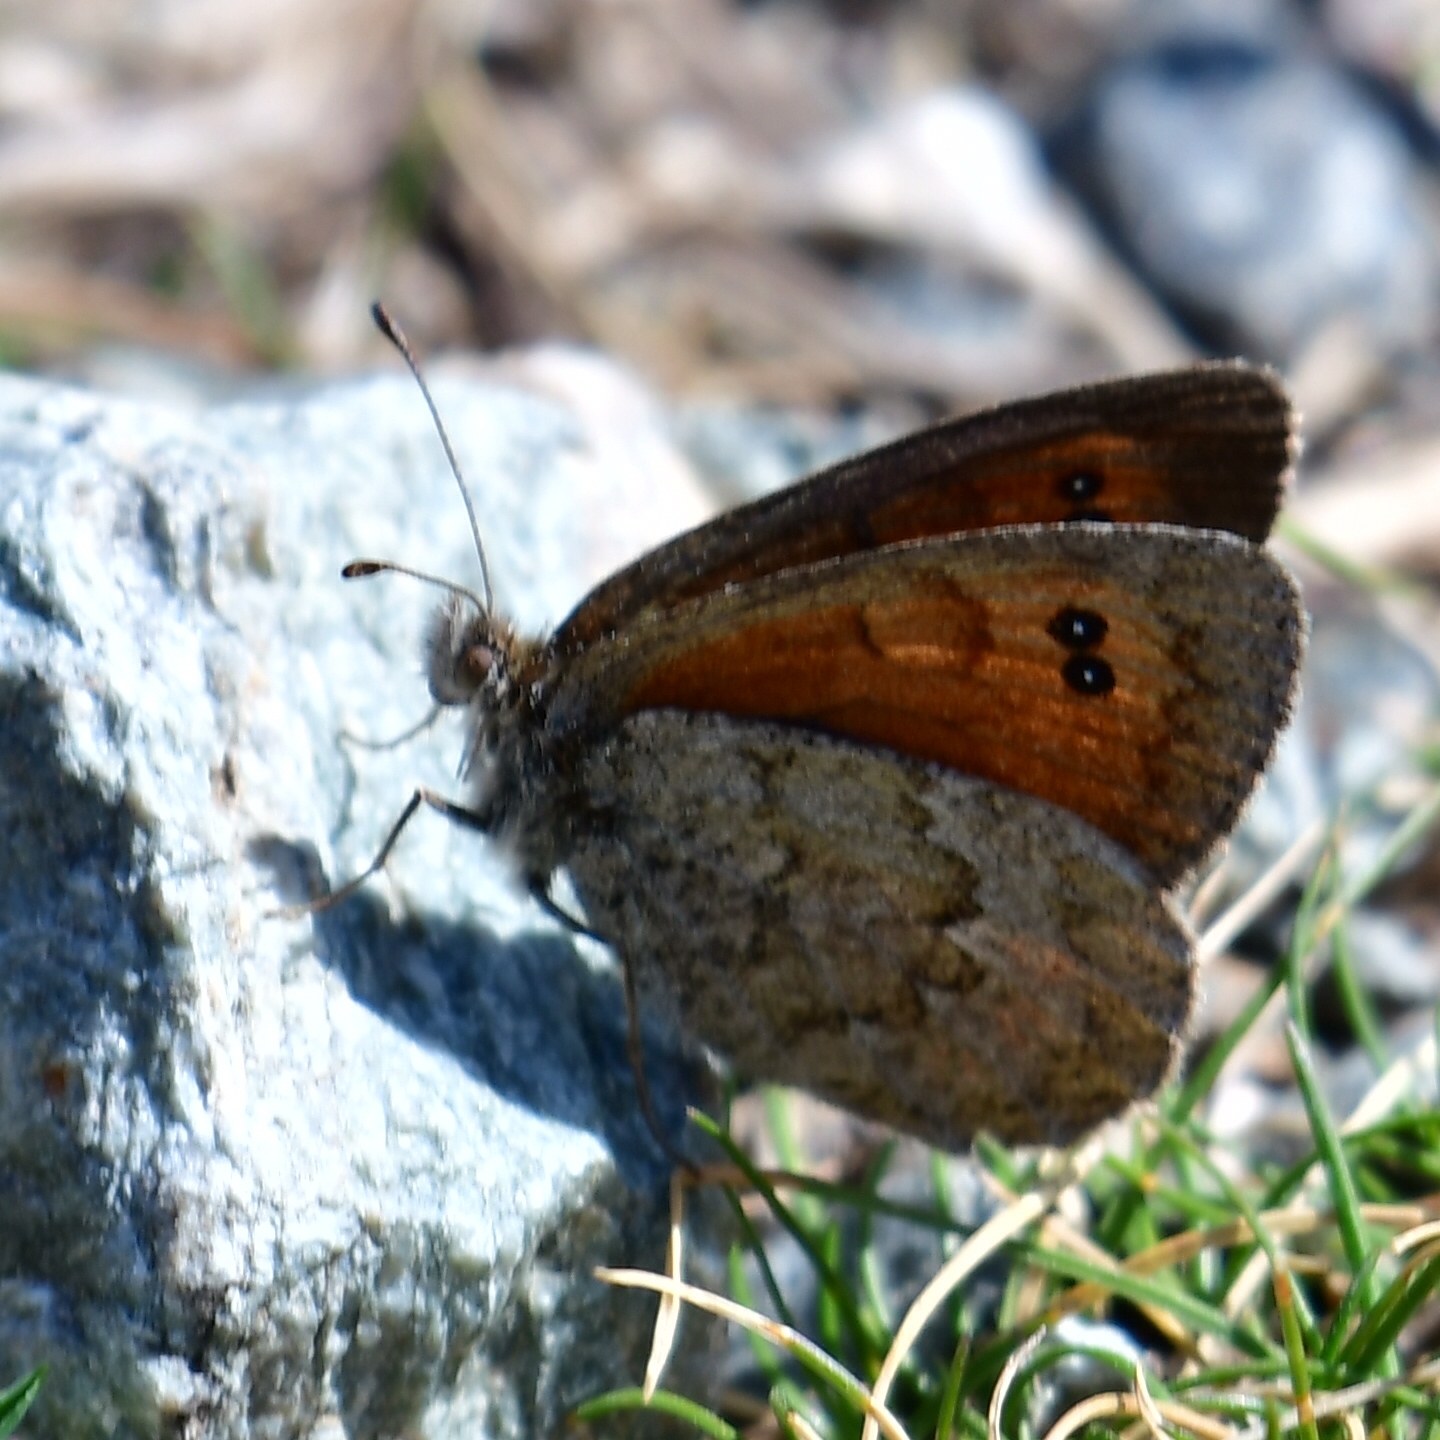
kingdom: Animalia
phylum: Arthropoda
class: Insecta
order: Lepidoptera
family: Nymphalidae
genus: Erebia
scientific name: Erebia cassioides
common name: Common brassy ringlet
